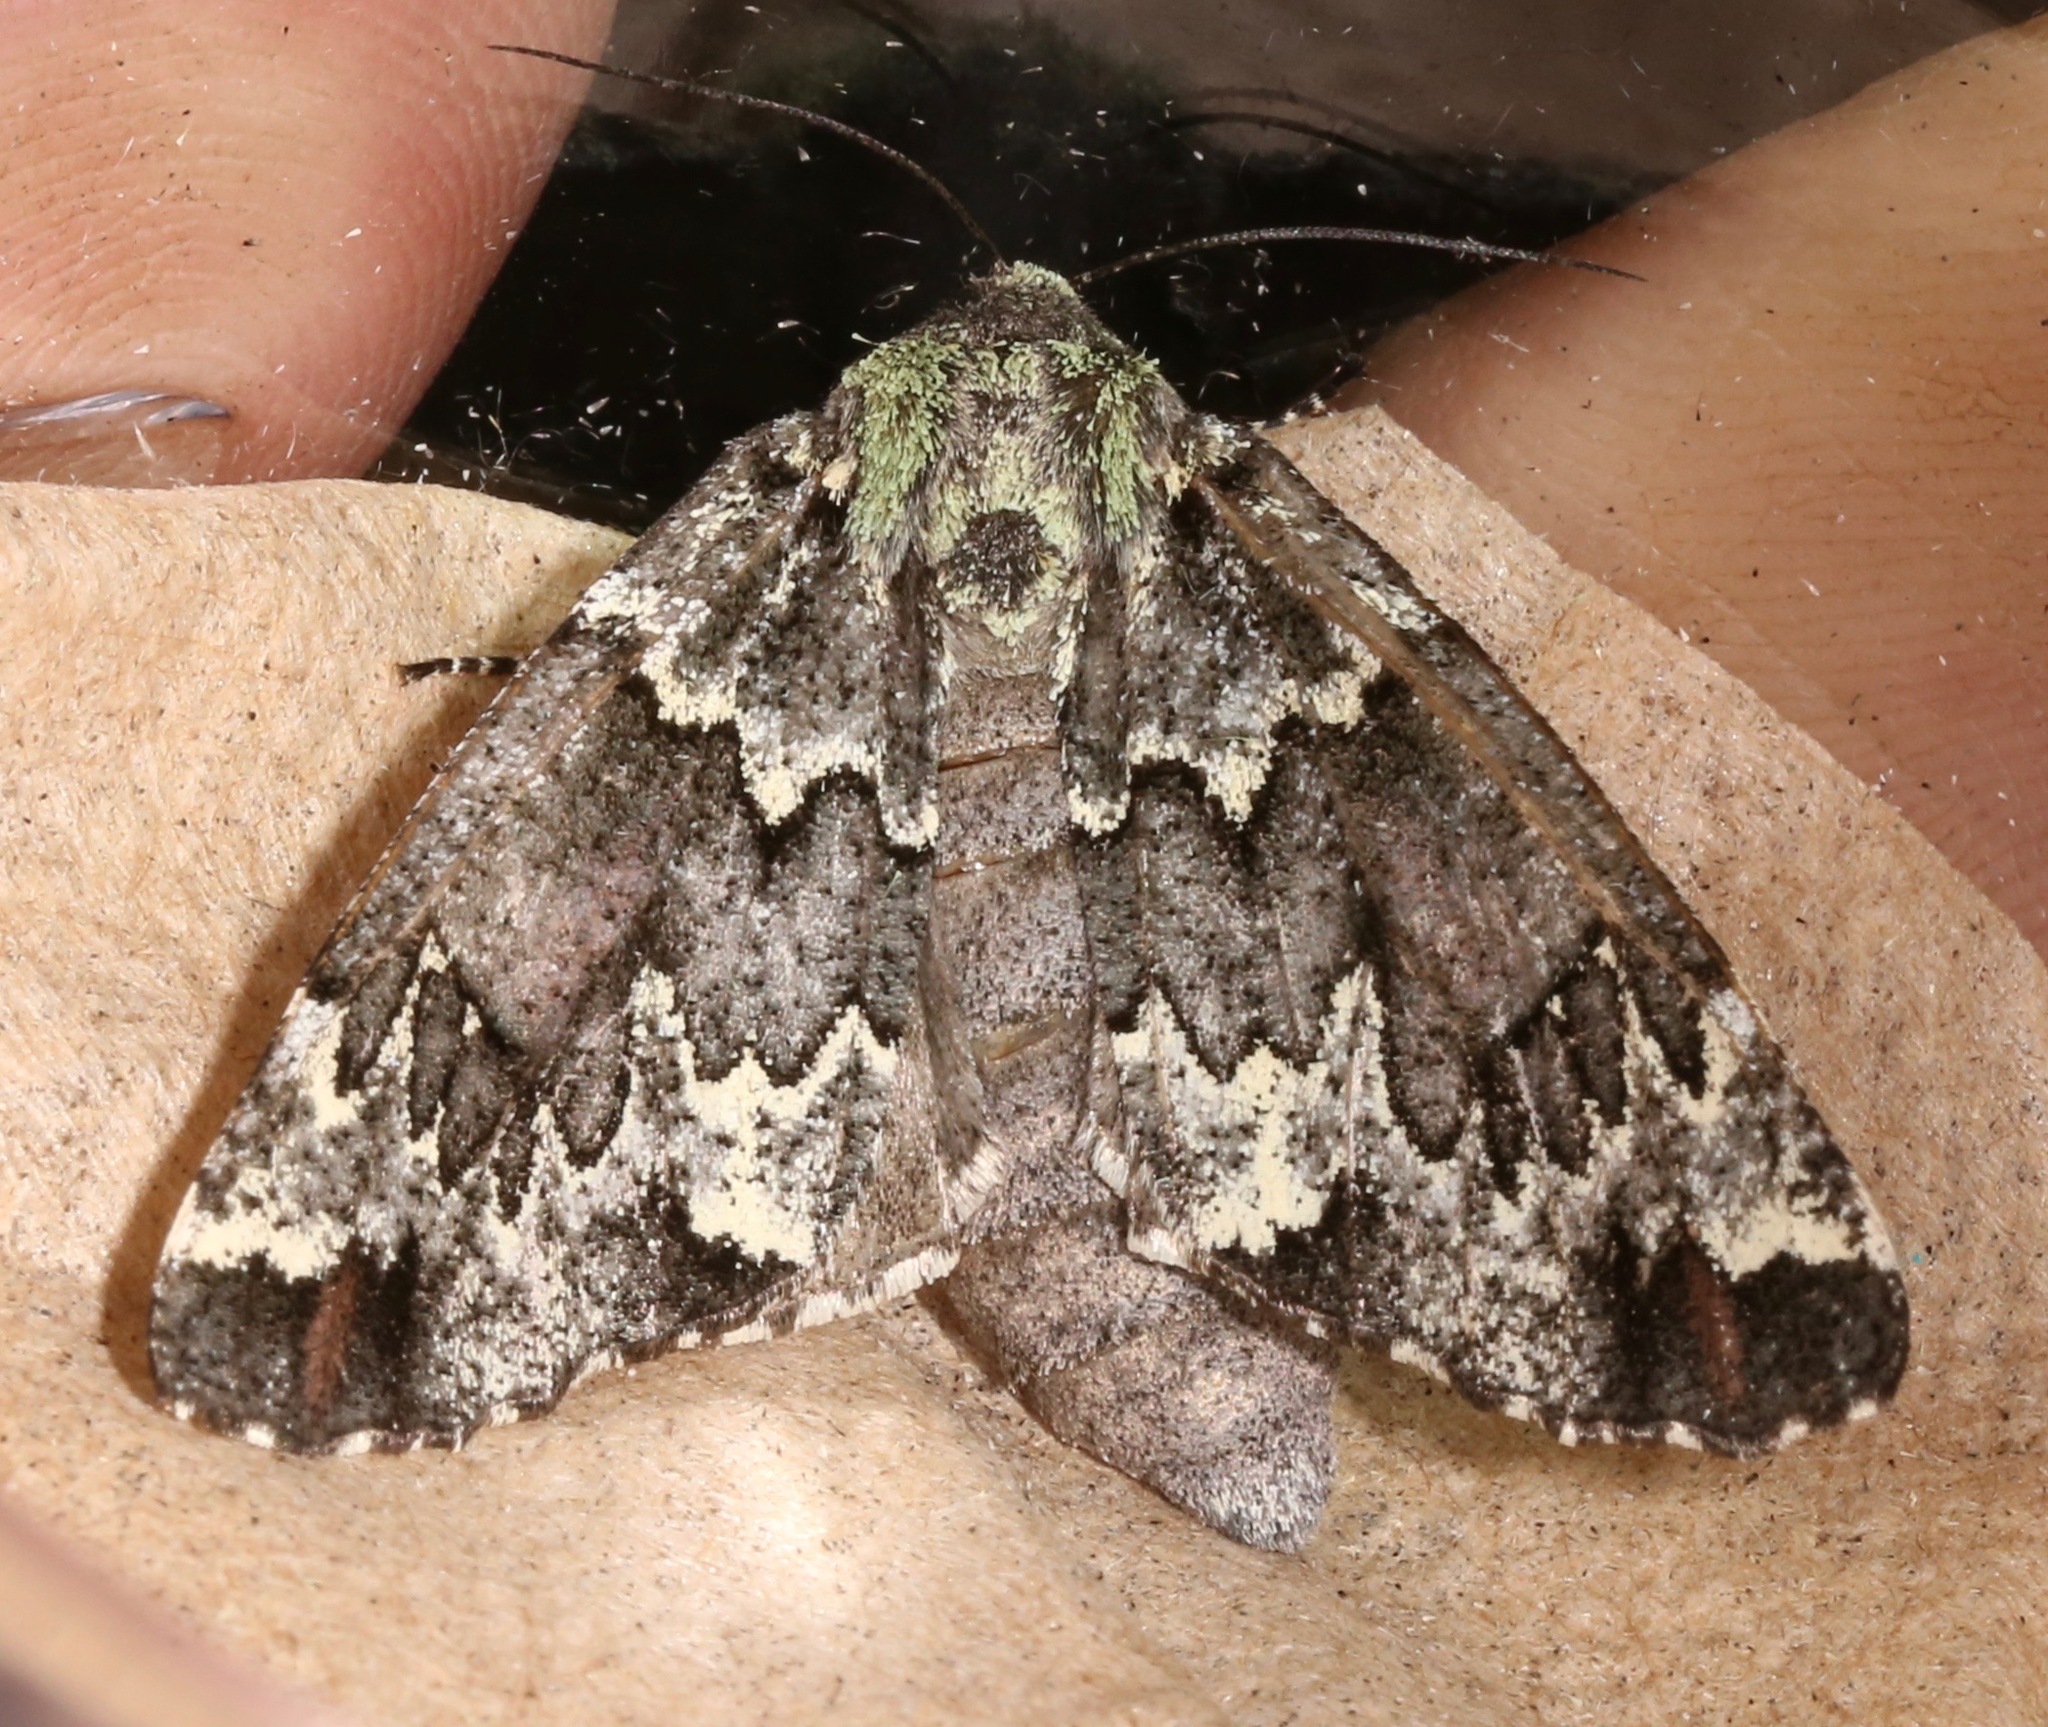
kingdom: Animalia
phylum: Arthropoda
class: Insecta
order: Lepidoptera
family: Geometridae
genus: Chiricahua
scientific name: Chiricahua lichenaria
